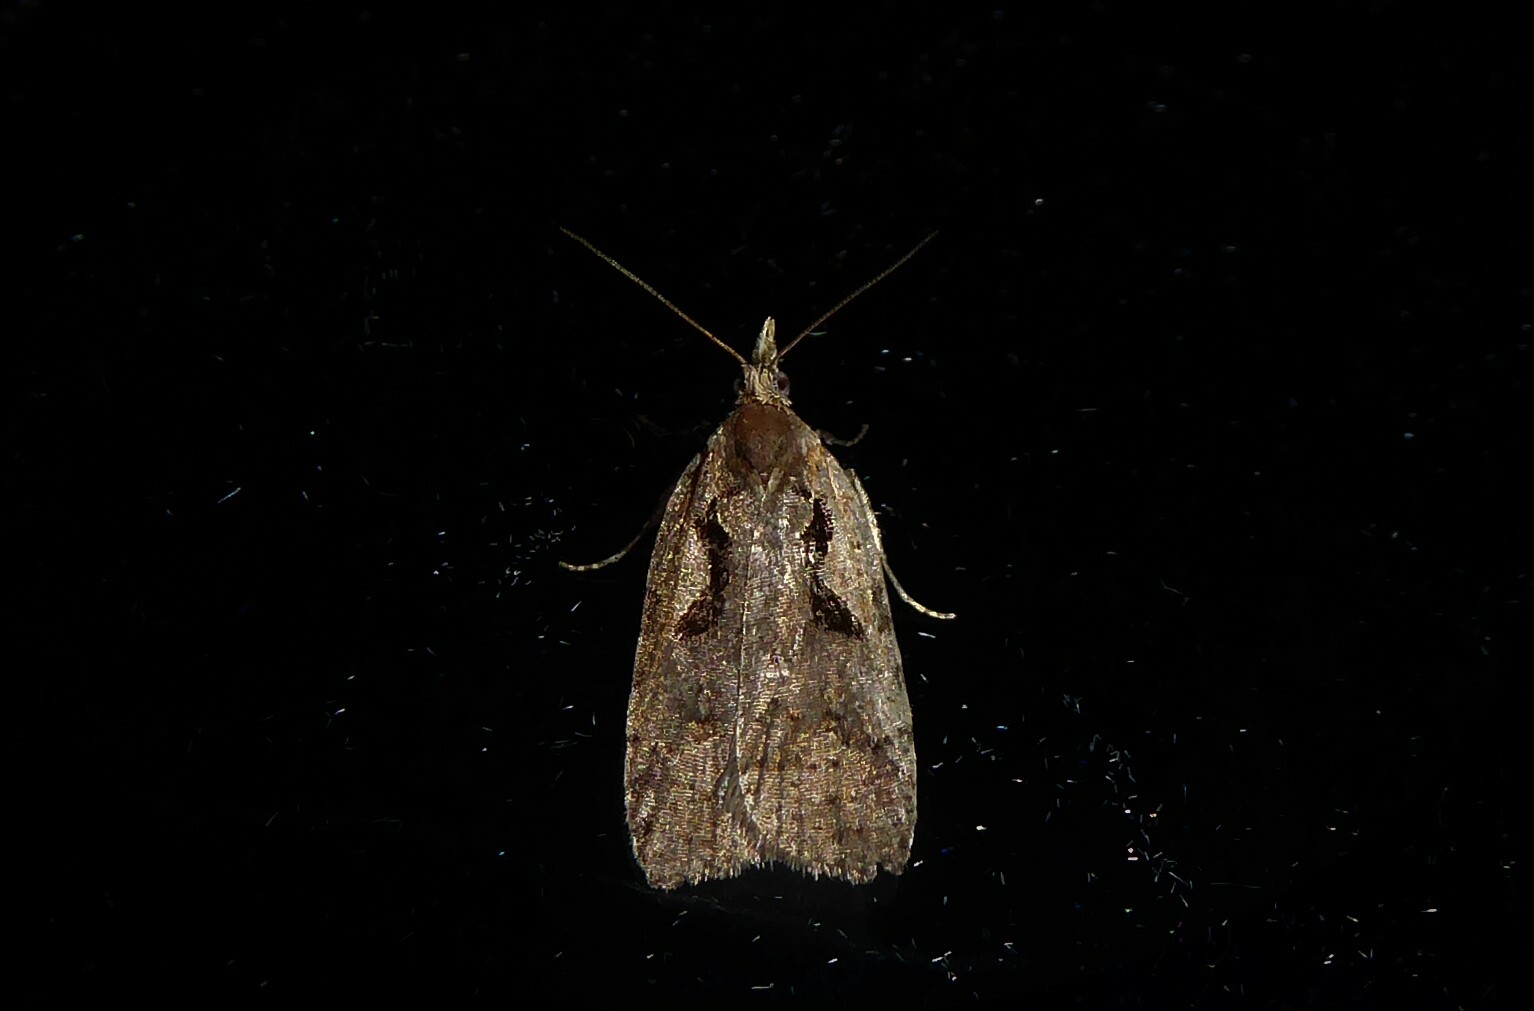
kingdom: Animalia
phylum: Arthropoda
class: Insecta
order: Lepidoptera
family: Tortricidae
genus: Cnephasia
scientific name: Cnephasia jactatana
